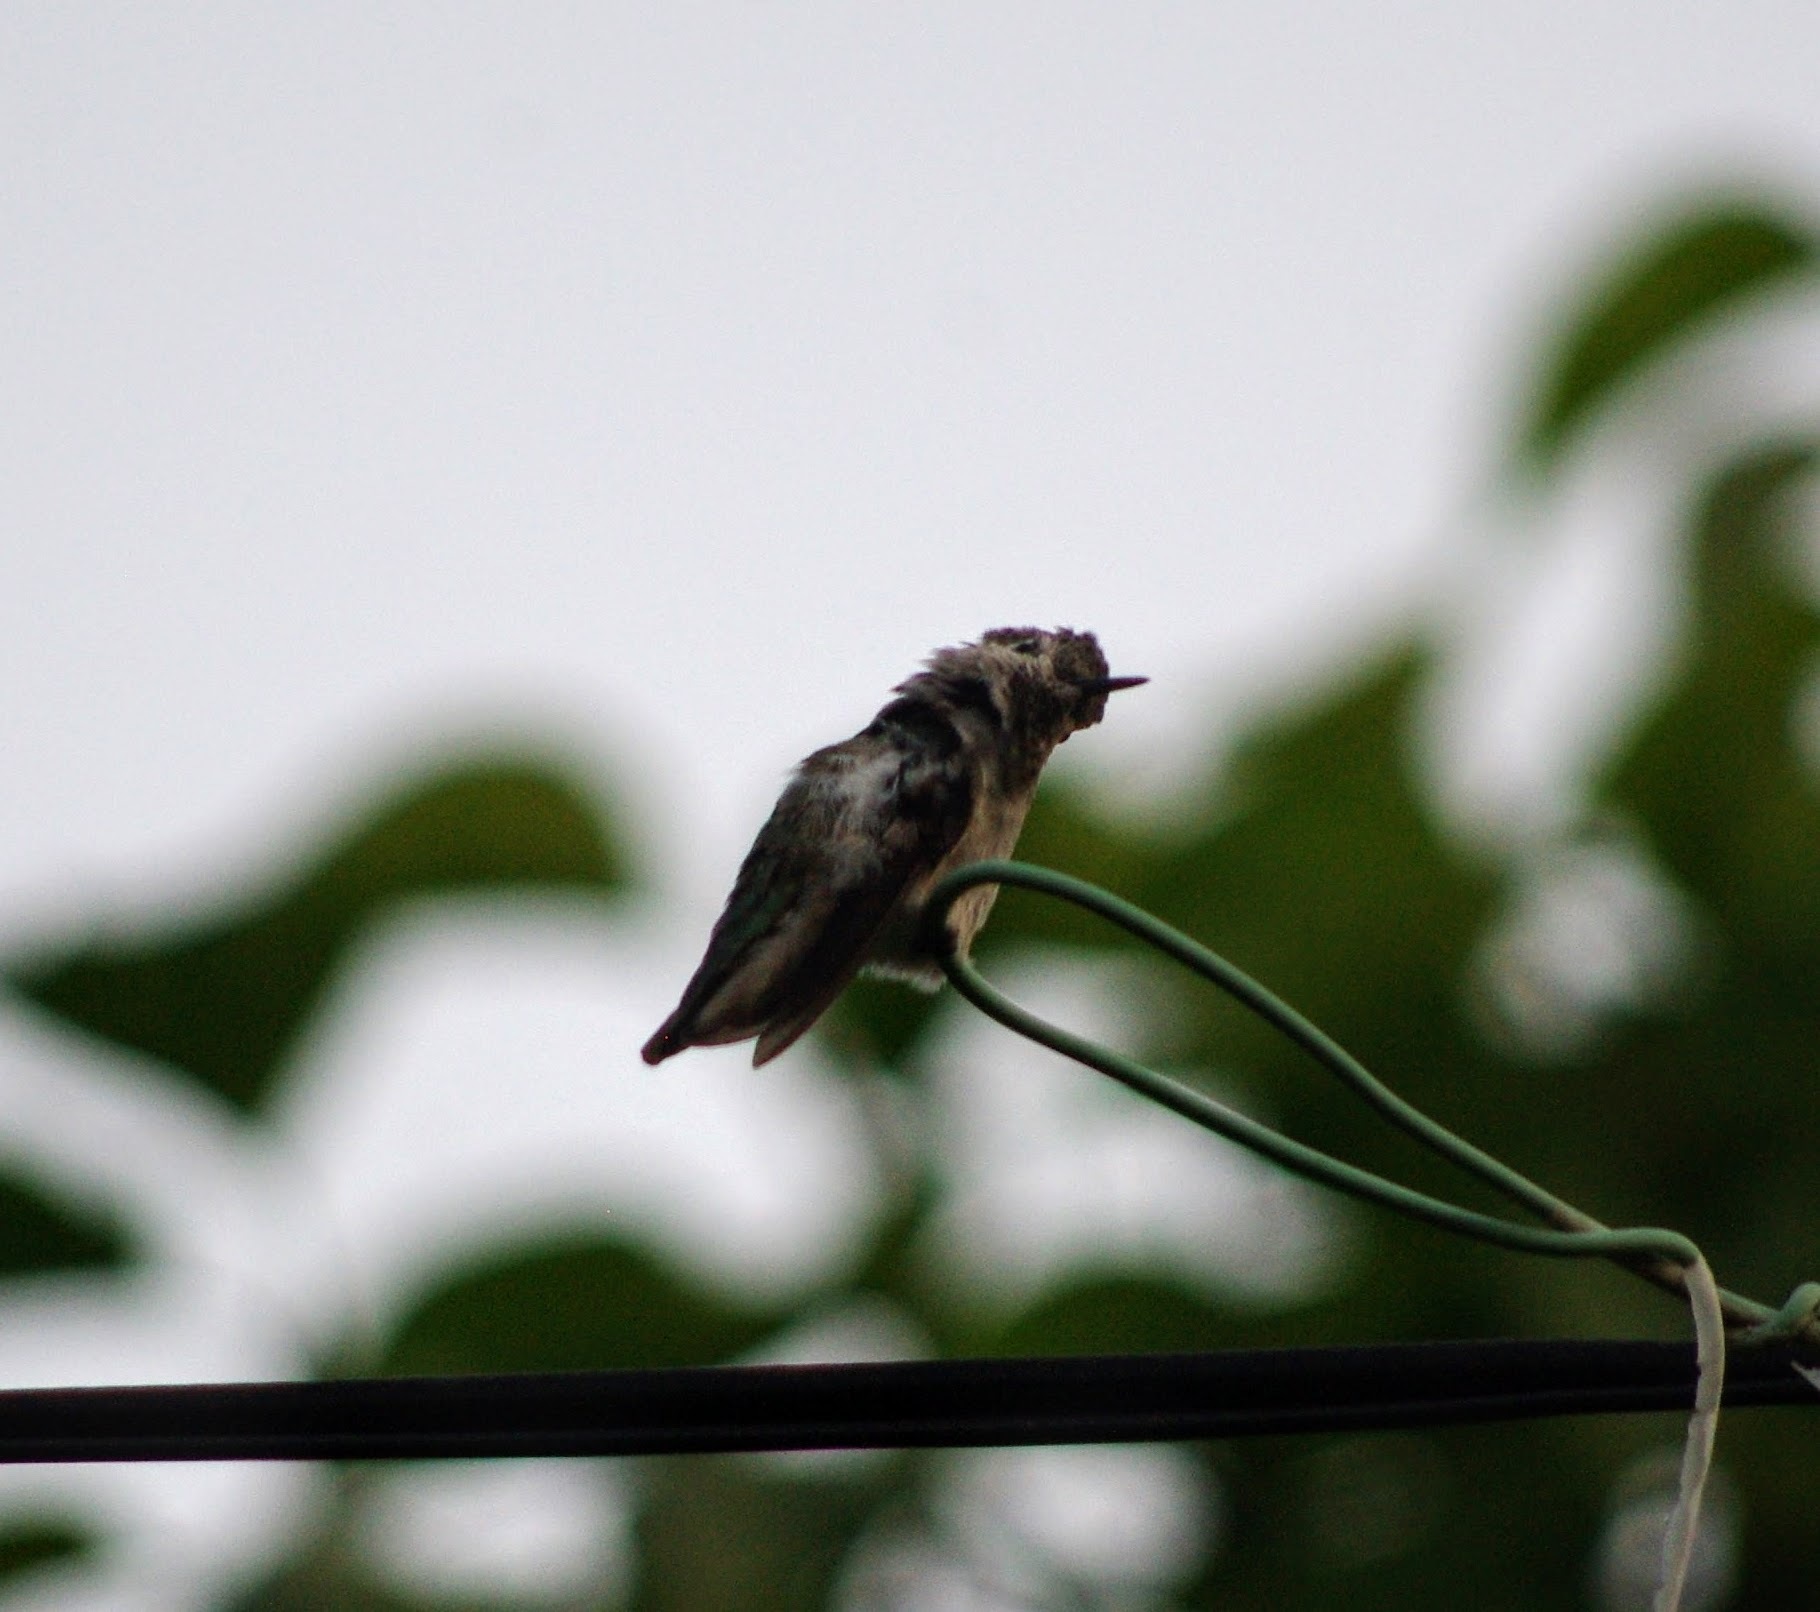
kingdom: Animalia
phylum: Chordata
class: Aves
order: Apodiformes
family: Trochilidae
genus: Calypte
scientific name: Calypte anna
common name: Anna's hummingbird
